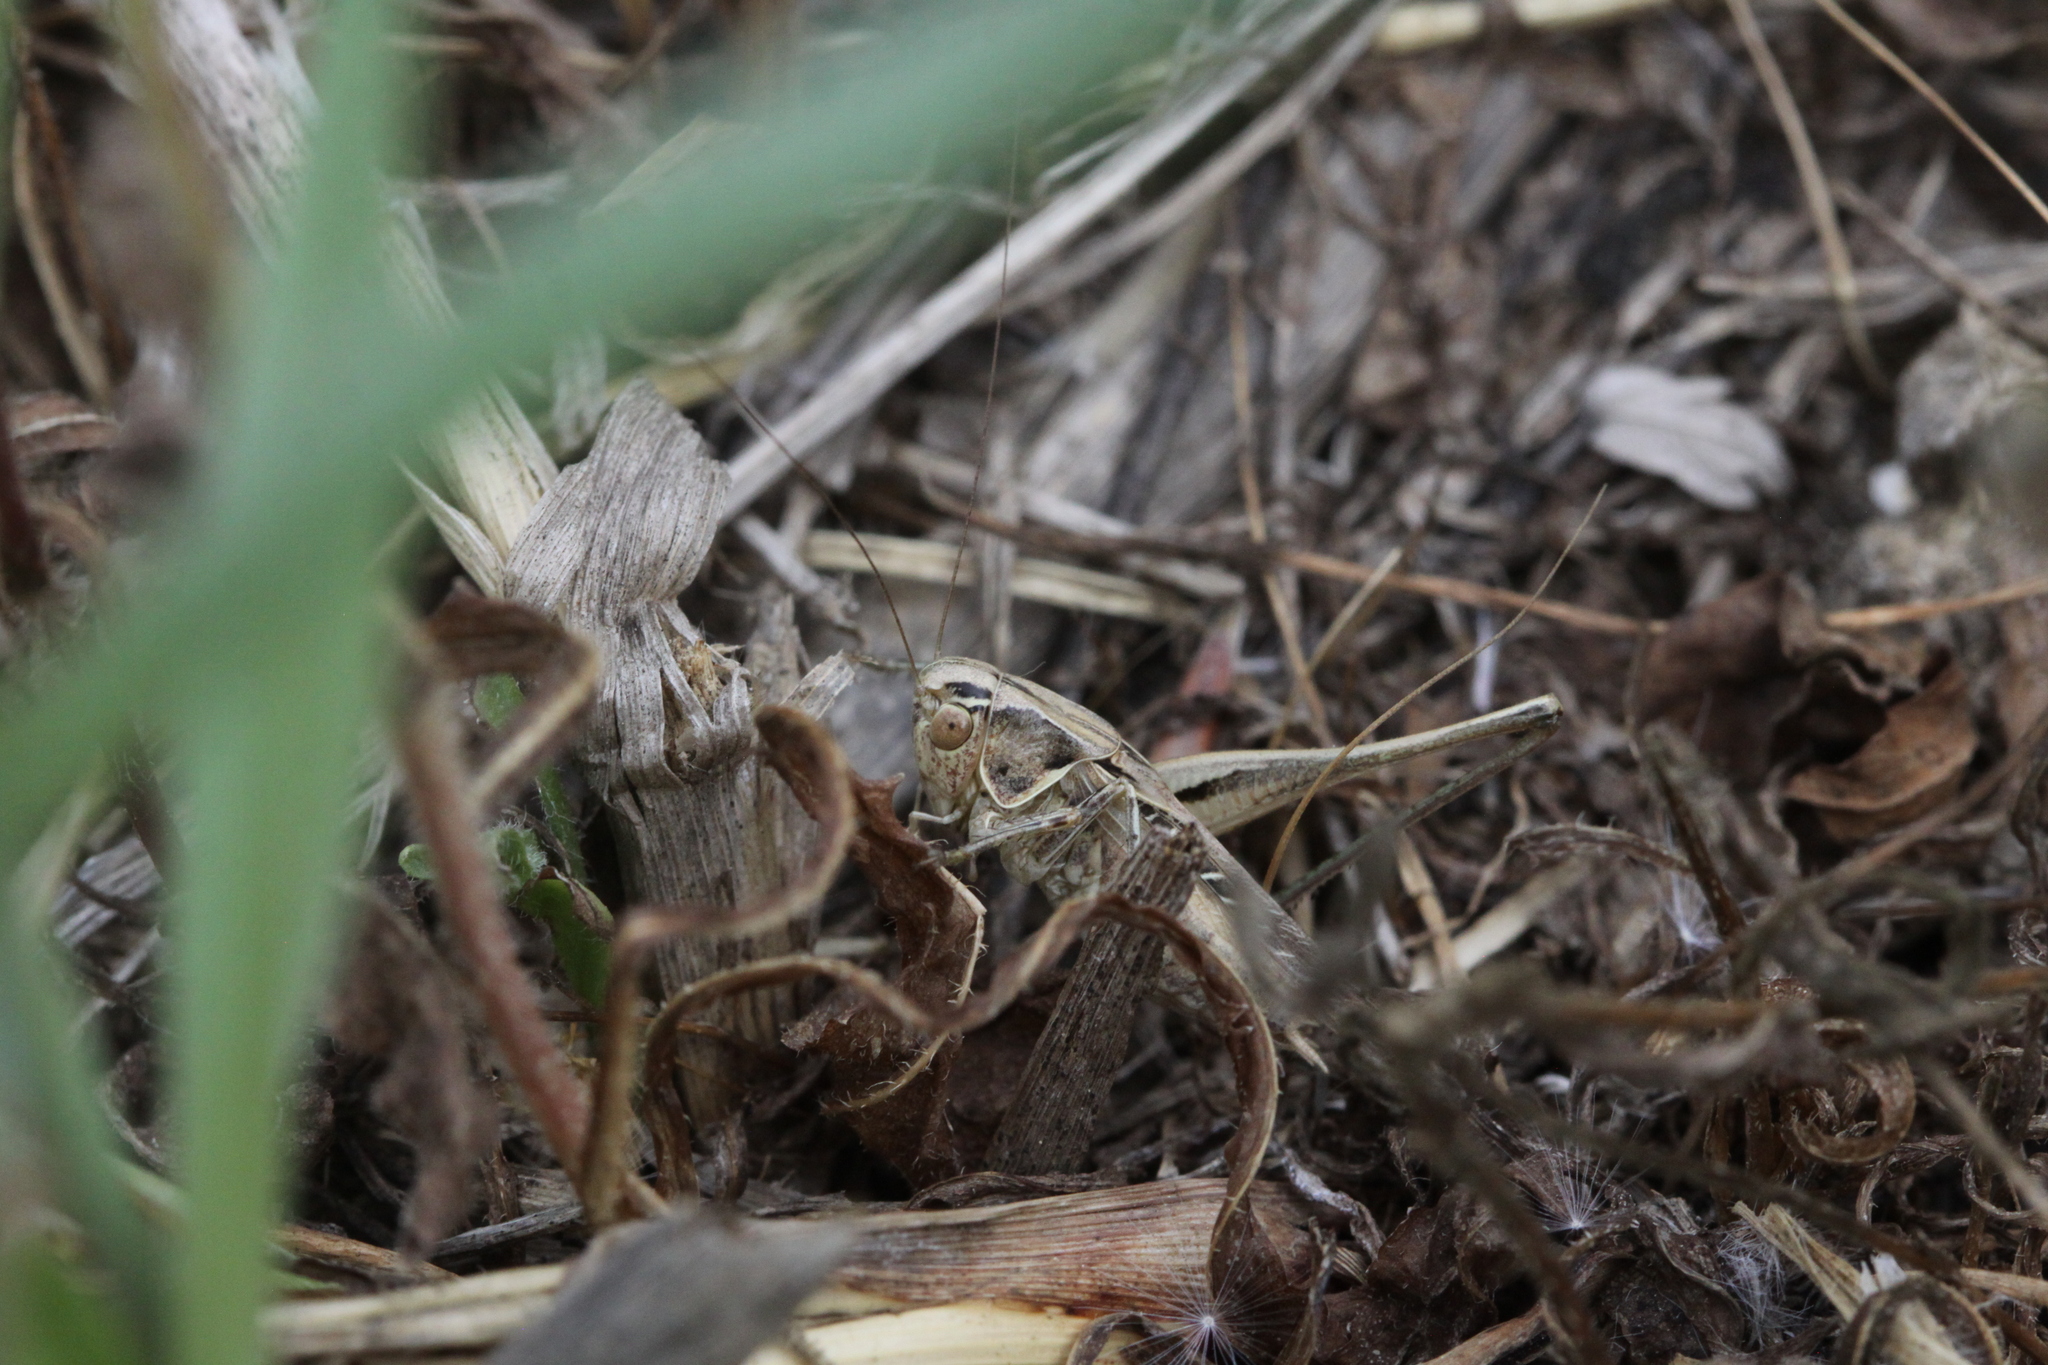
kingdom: Animalia
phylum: Arthropoda
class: Insecta
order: Orthoptera
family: Tettigoniidae
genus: Tessellana
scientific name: Tessellana tessellata
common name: Grasshopper
